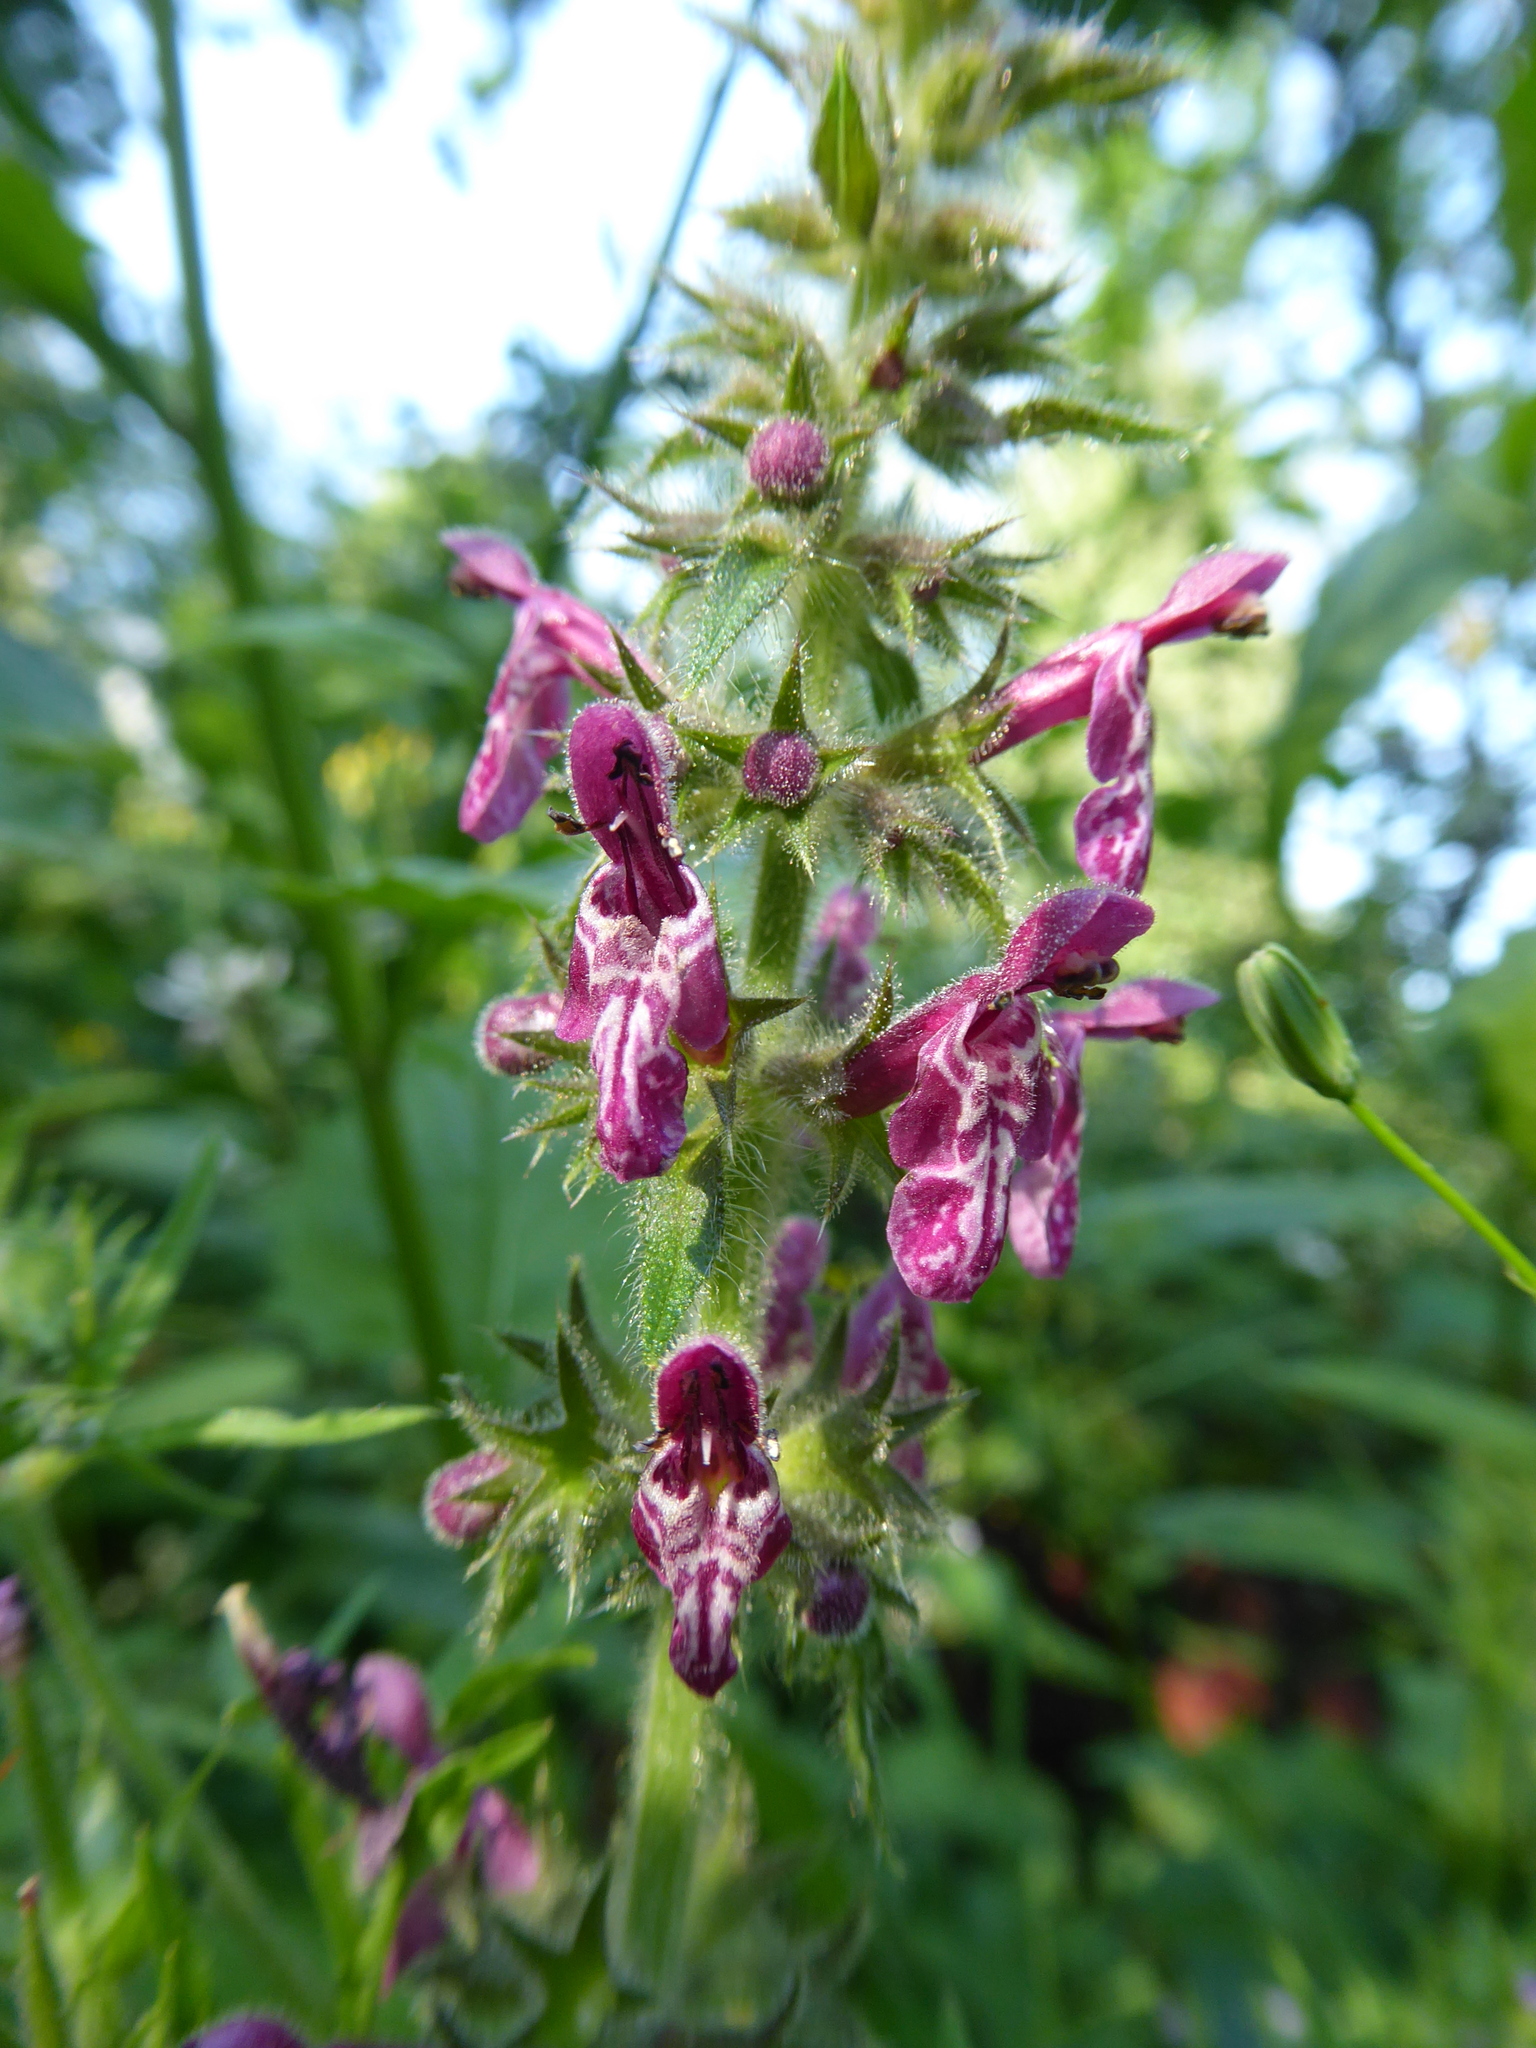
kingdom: Plantae
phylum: Tracheophyta
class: Magnoliopsida
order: Lamiales
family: Lamiaceae
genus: Stachys
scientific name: Stachys sylvatica
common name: Hedge woundwort
